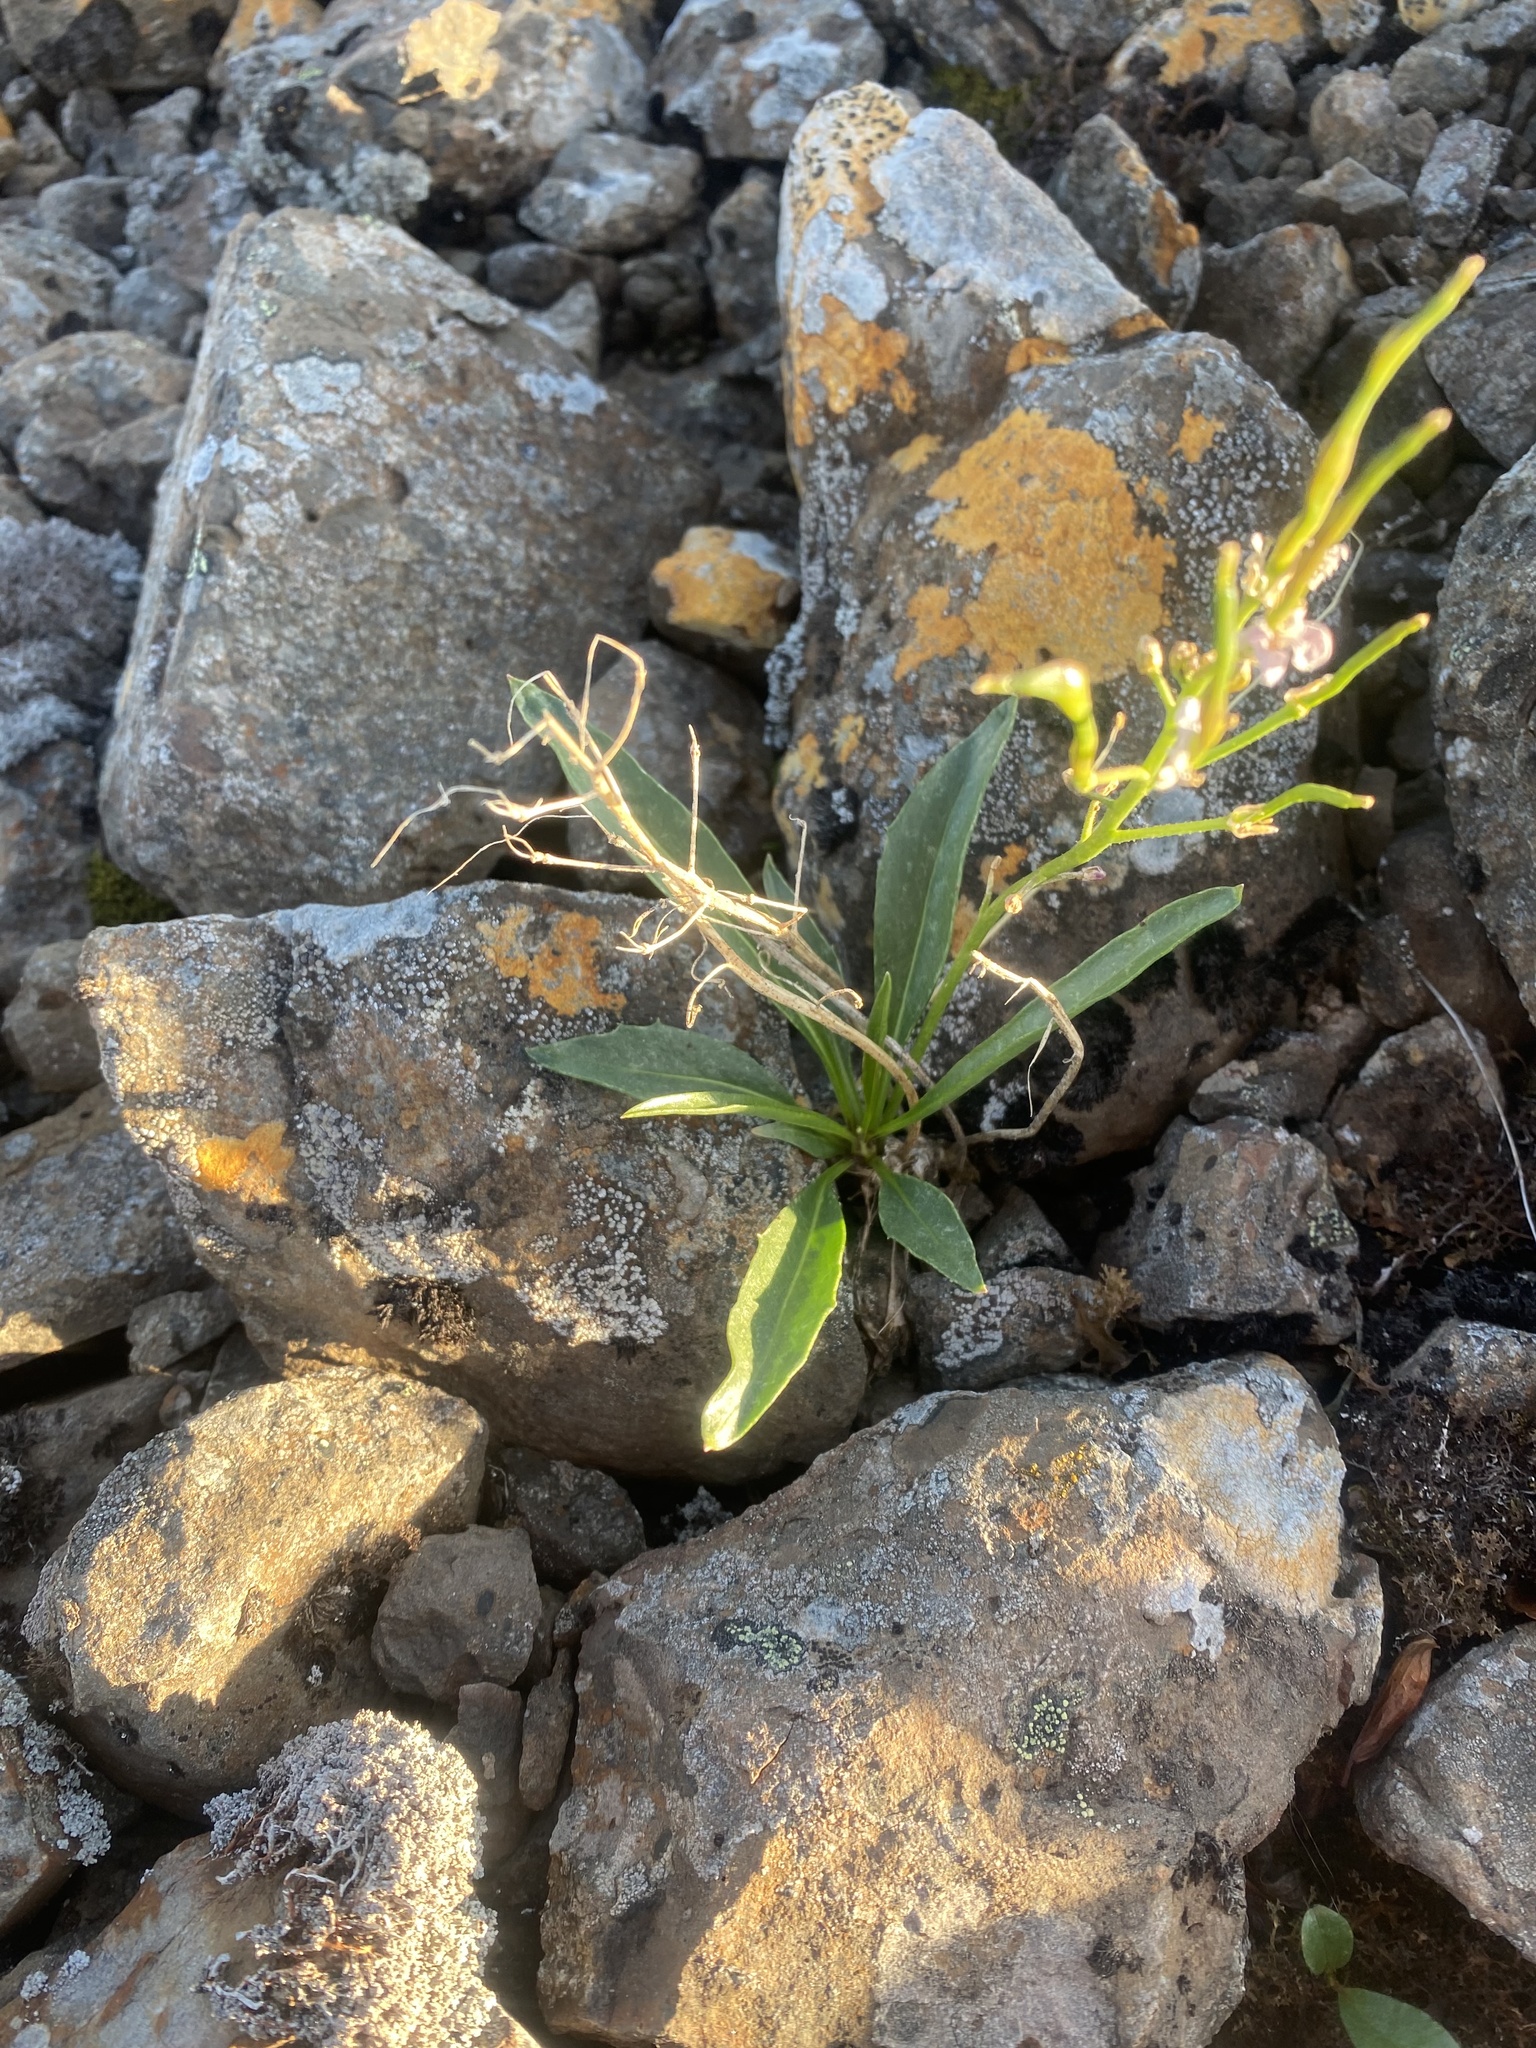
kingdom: Plantae
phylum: Tracheophyta
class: Magnoliopsida
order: Brassicales
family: Brassicaceae
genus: Parrya
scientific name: Parrya nudicaulis
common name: Naked-stemmed false wallflower
